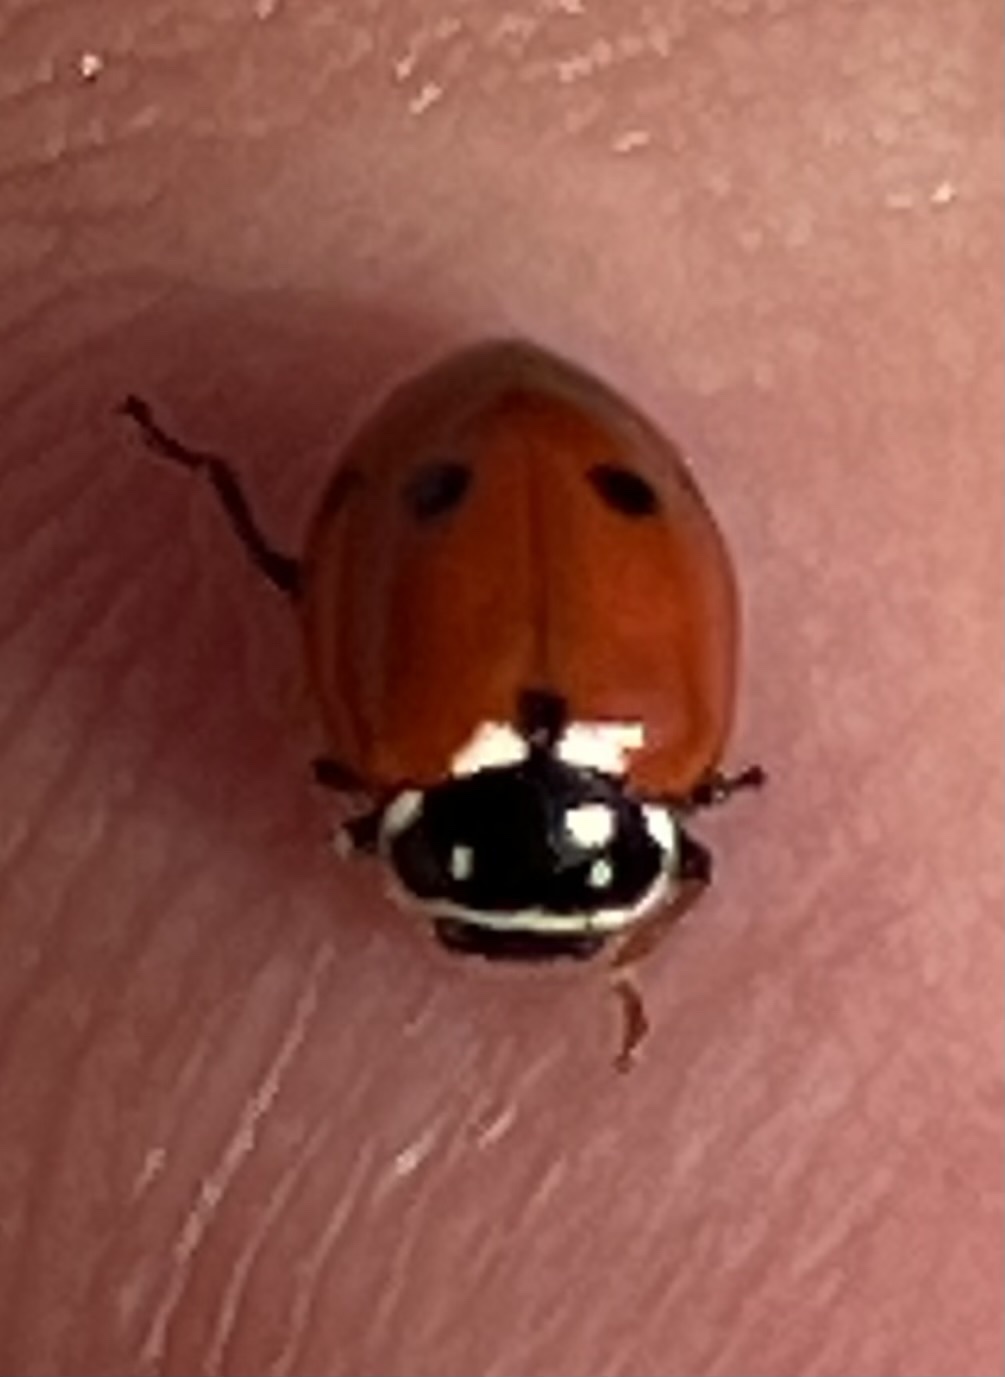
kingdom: Animalia
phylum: Arthropoda
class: Insecta
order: Coleoptera
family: Coccinellidae
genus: Hippodamia
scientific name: Hippodamia variegata
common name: Ladybird beetle
